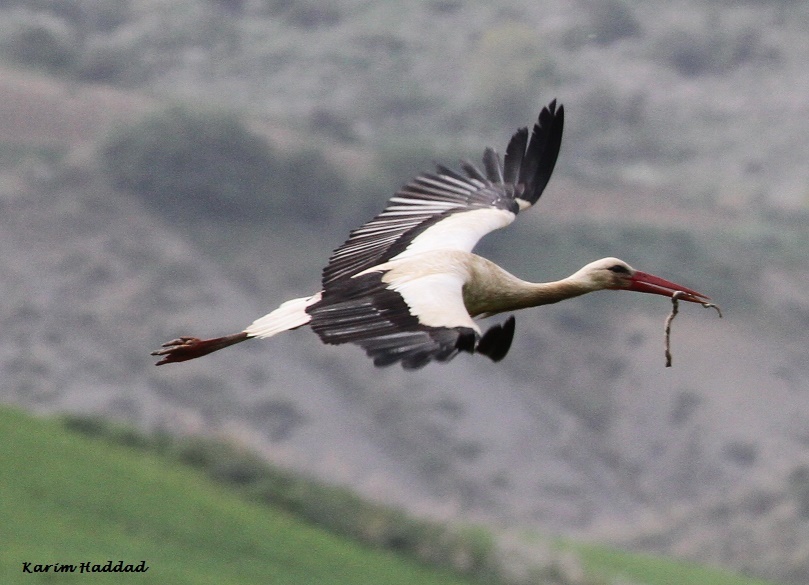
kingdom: Animalia
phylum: Chordata
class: Aves
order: Ciconiiformes
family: Ciconiidae
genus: Ciconia
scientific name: Ciconia ciconia
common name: White stork
